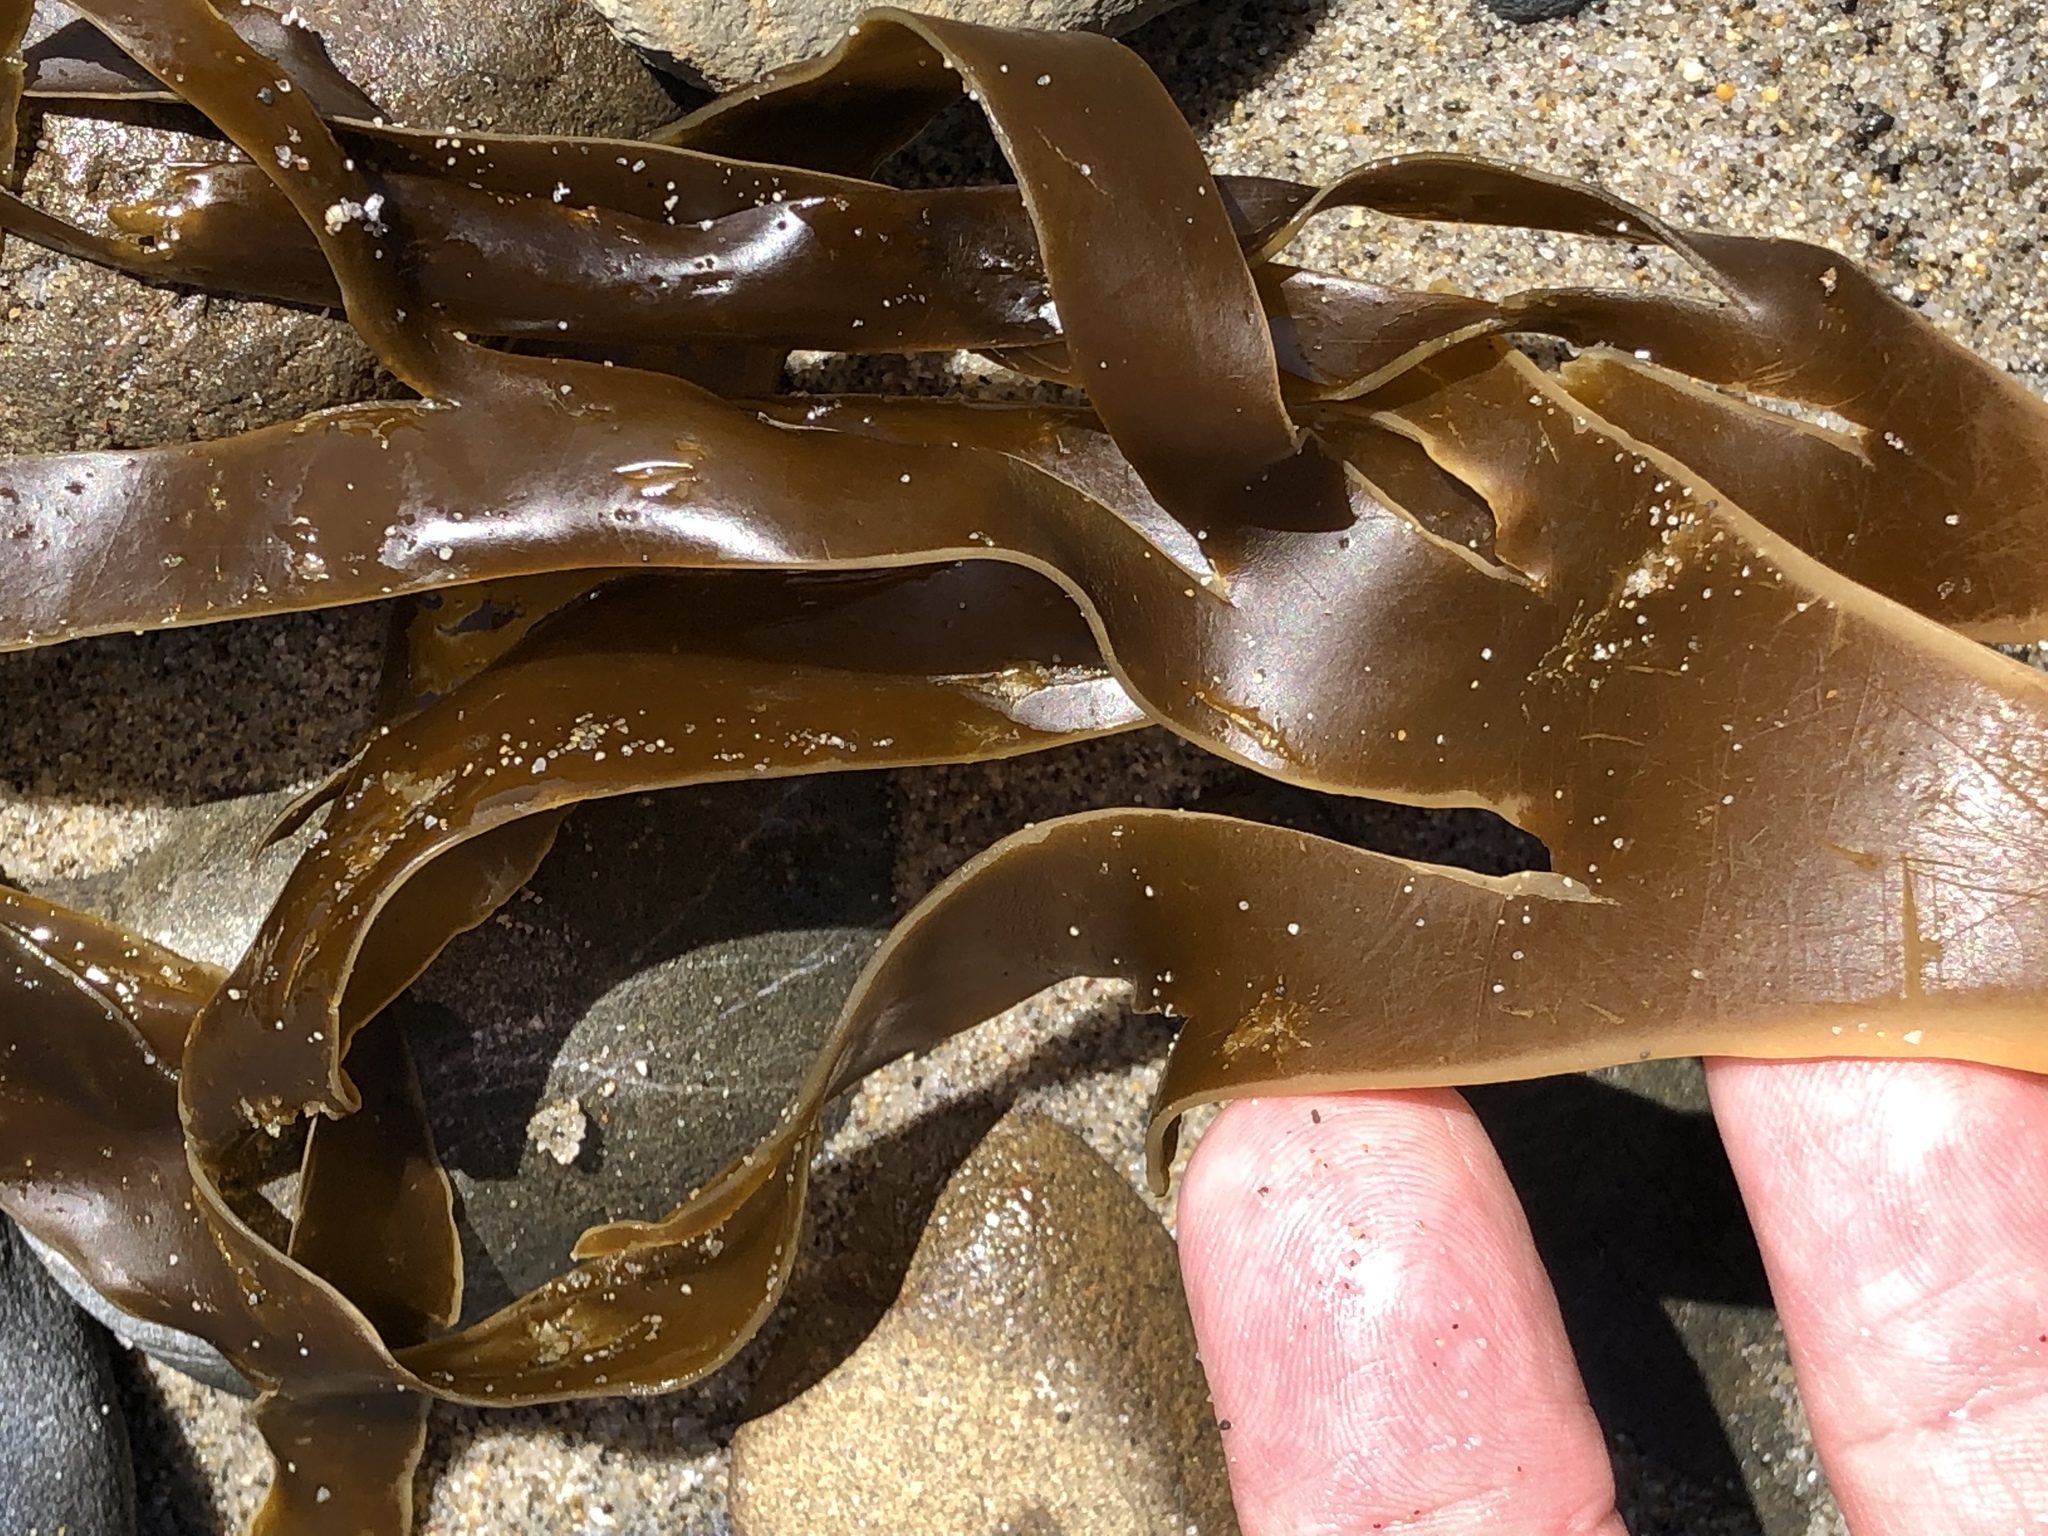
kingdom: Chromista
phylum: Ochrophyta
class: Phaeophyceae
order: Laminariales
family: Laminariaceae
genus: Laminaria
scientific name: Laminaria setchellii
